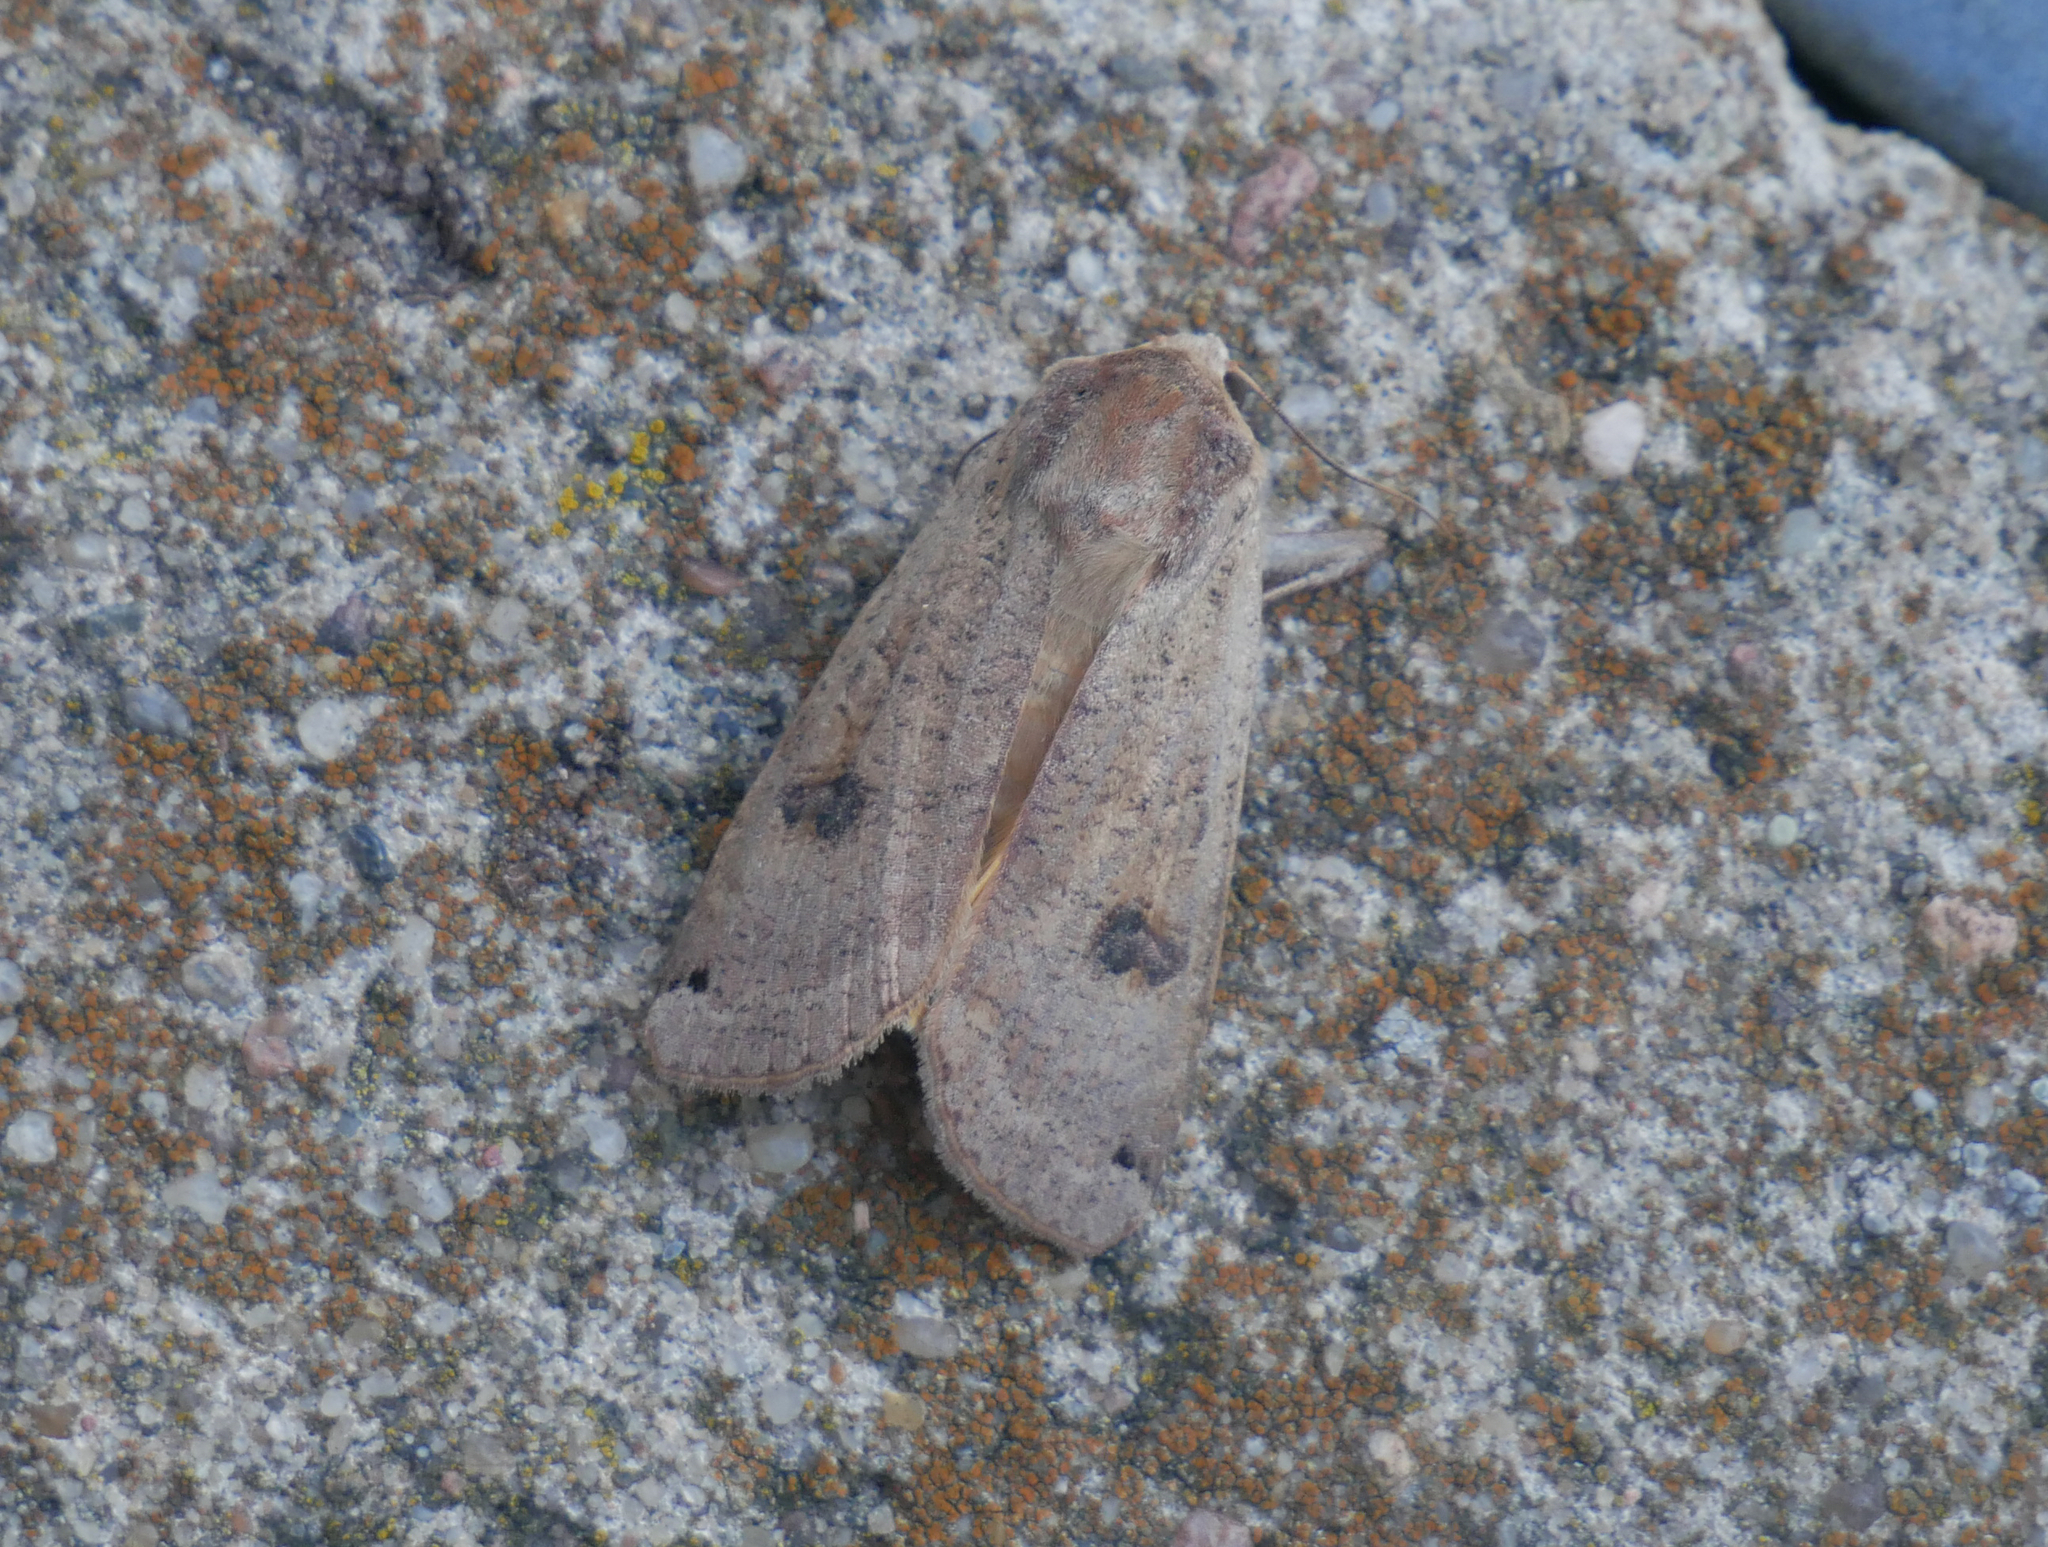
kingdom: Animalia
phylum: Arthropoda
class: Insecta
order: Lepidoptera
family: Noctuidae
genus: Noctua
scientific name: Noctua pronuba
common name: Large yellow underwing
